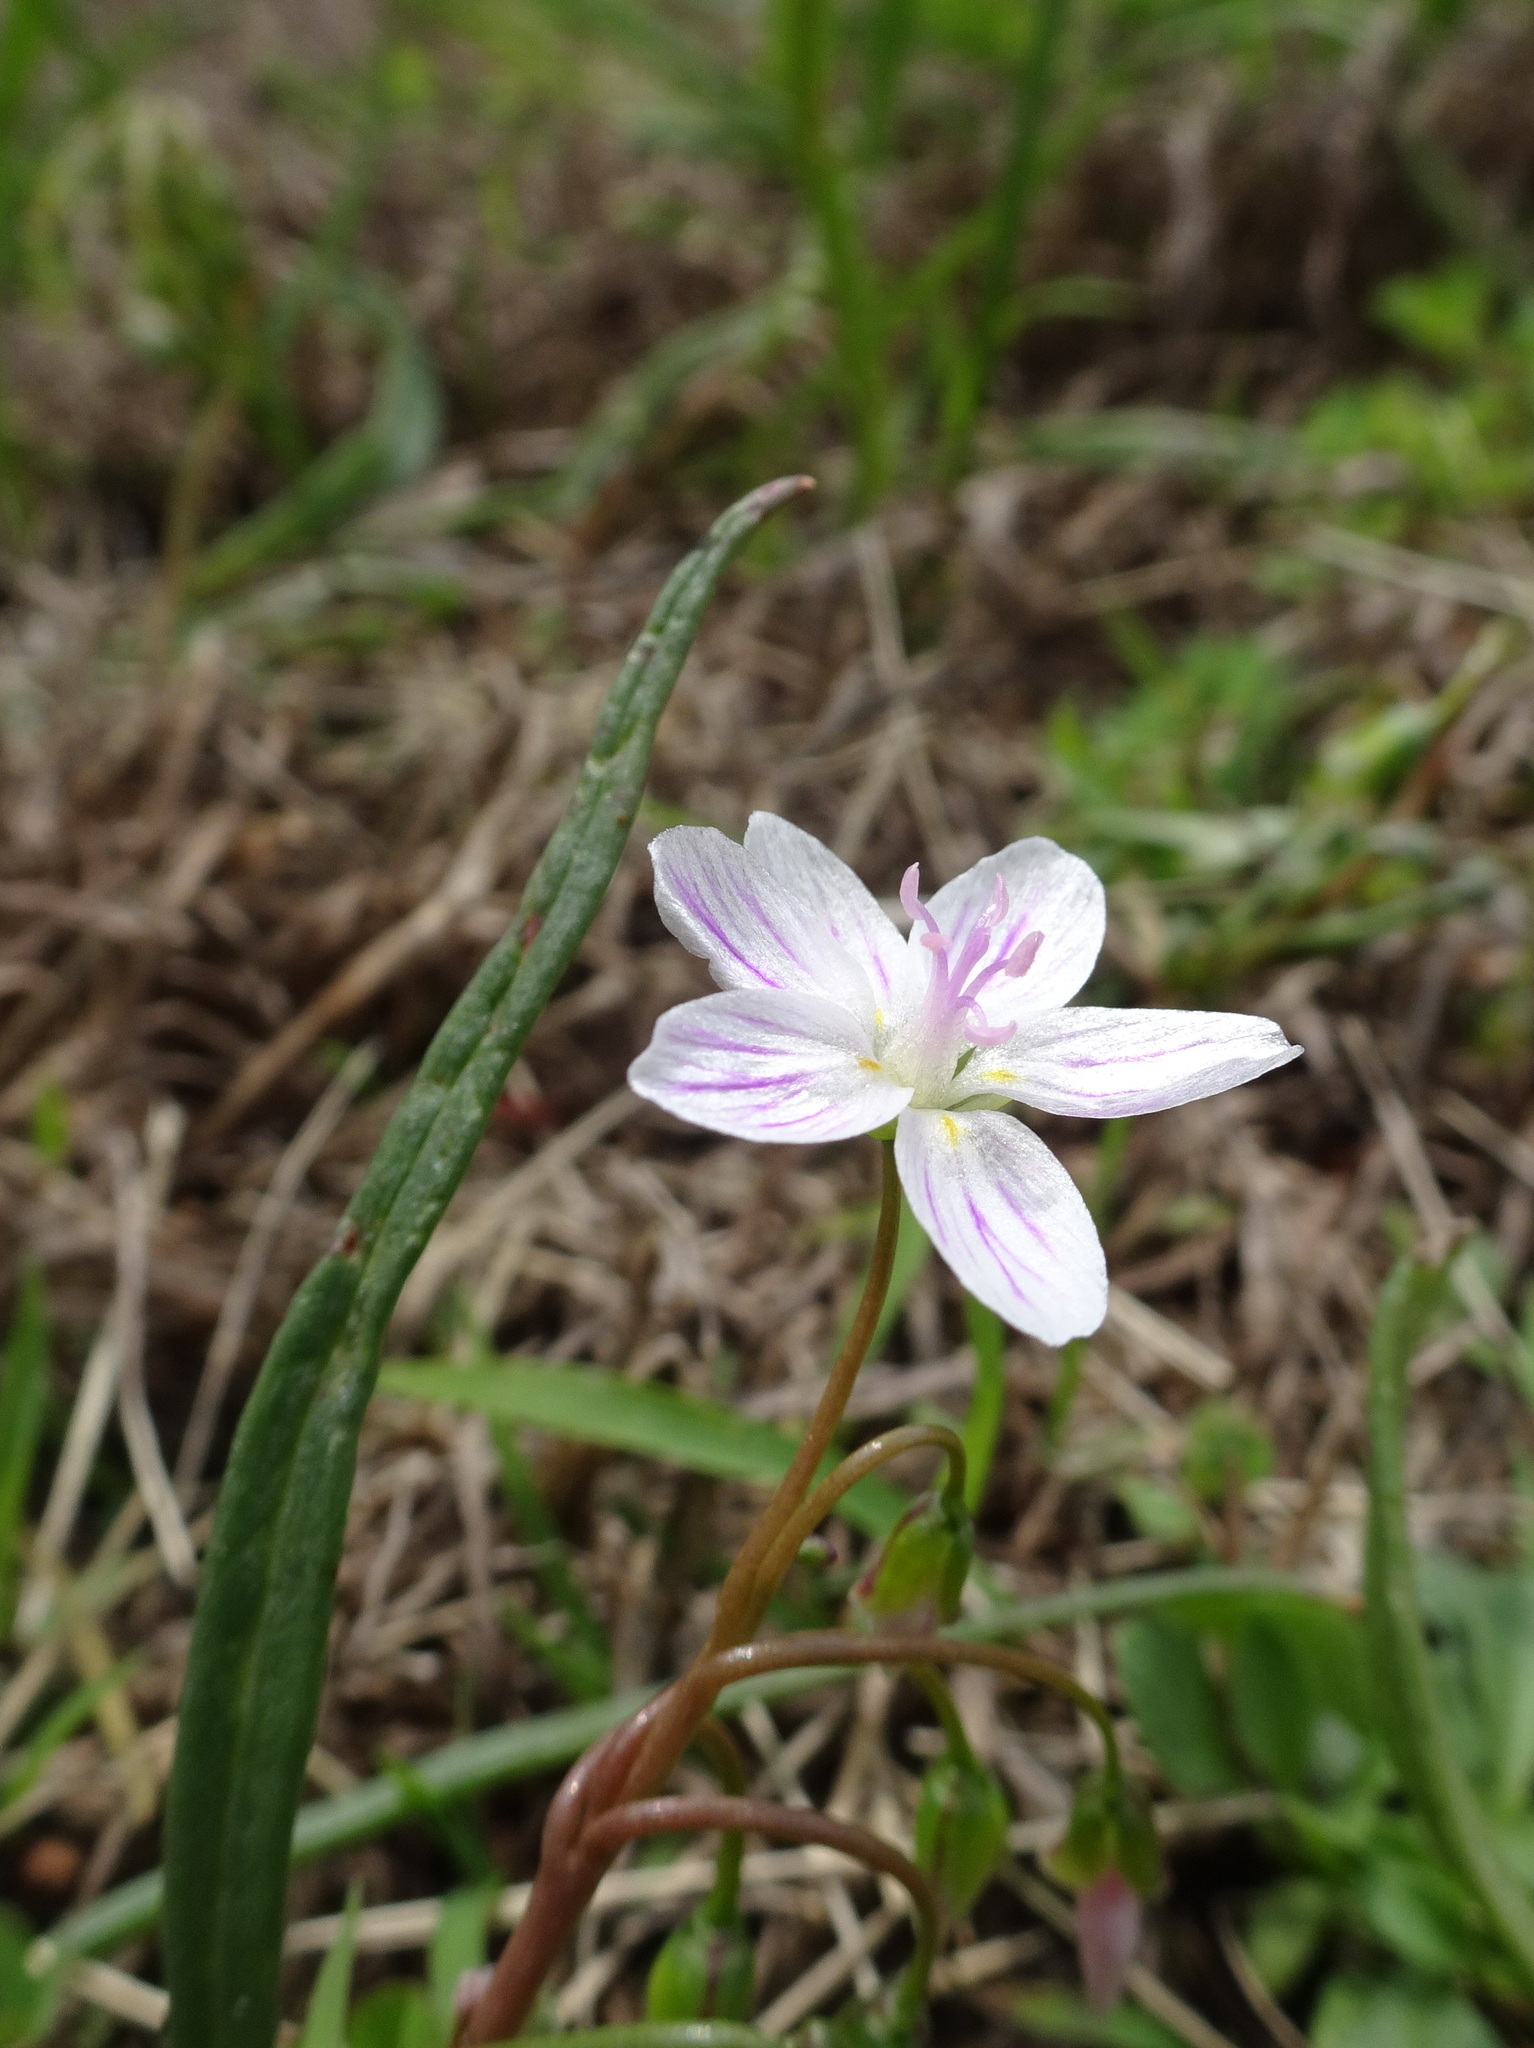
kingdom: Plantae
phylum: Tracheophyta
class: Magnoliopsida
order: Caryophyllales
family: Montiaceae
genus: Claytonia
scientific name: Claytonia virginica
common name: Virginia springbeauty
